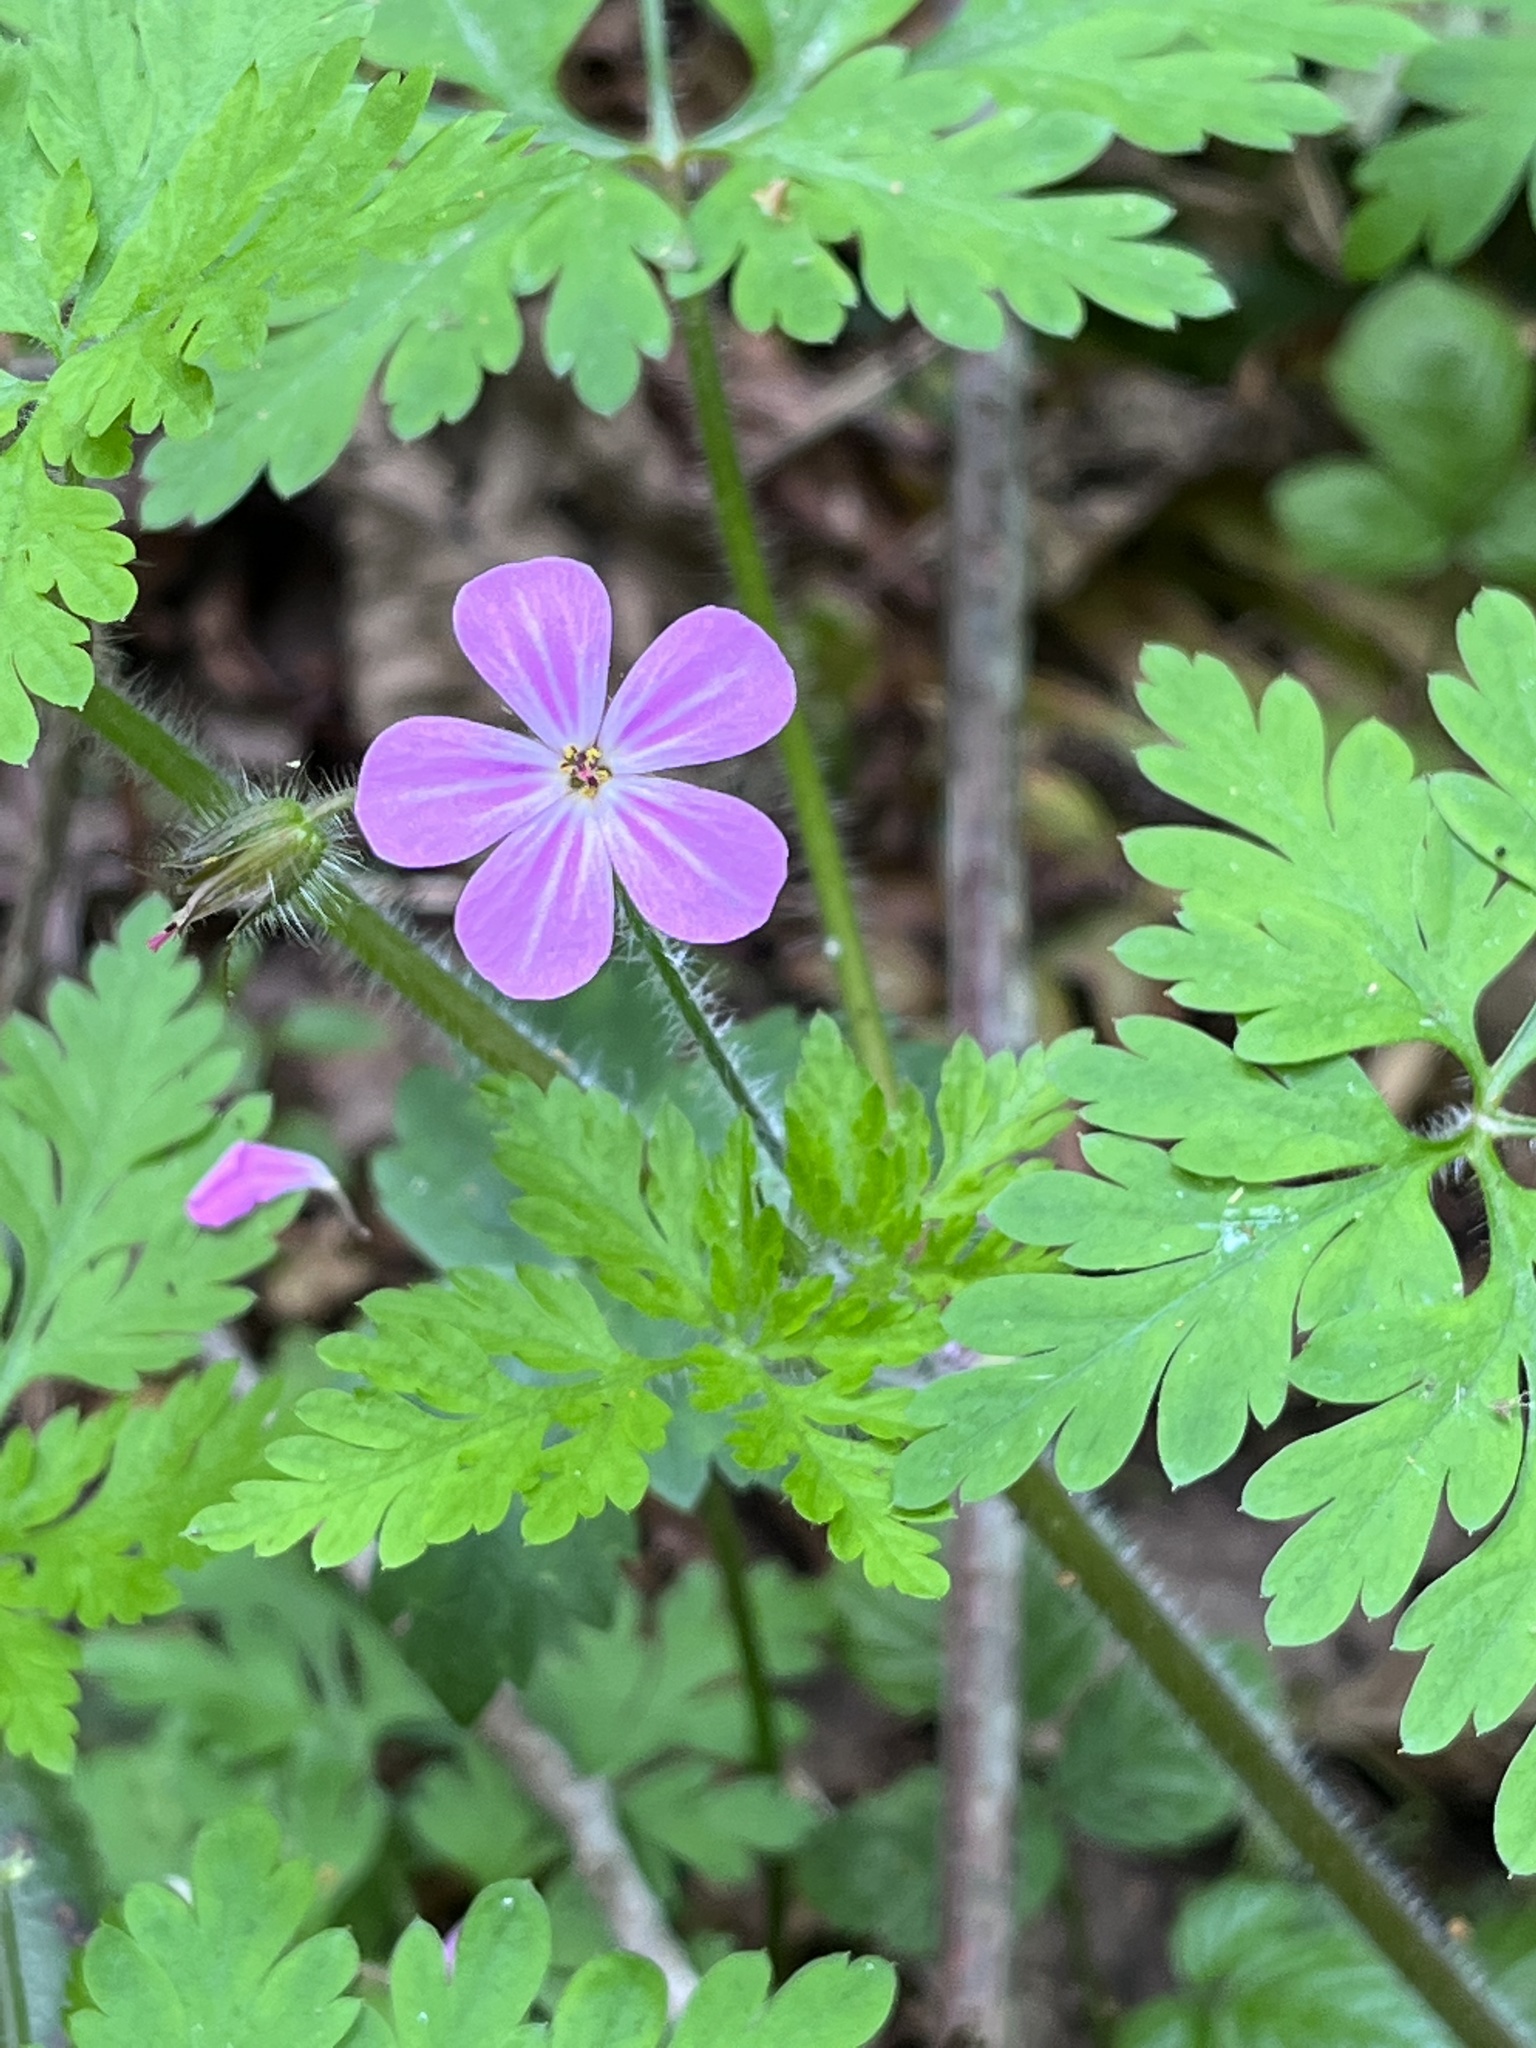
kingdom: Plantae
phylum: Tracheophyta
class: Magnoliopsida
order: Geraniales
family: Geraniaceae
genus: Geranium
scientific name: Geranium robertianum
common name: Herb-robert
